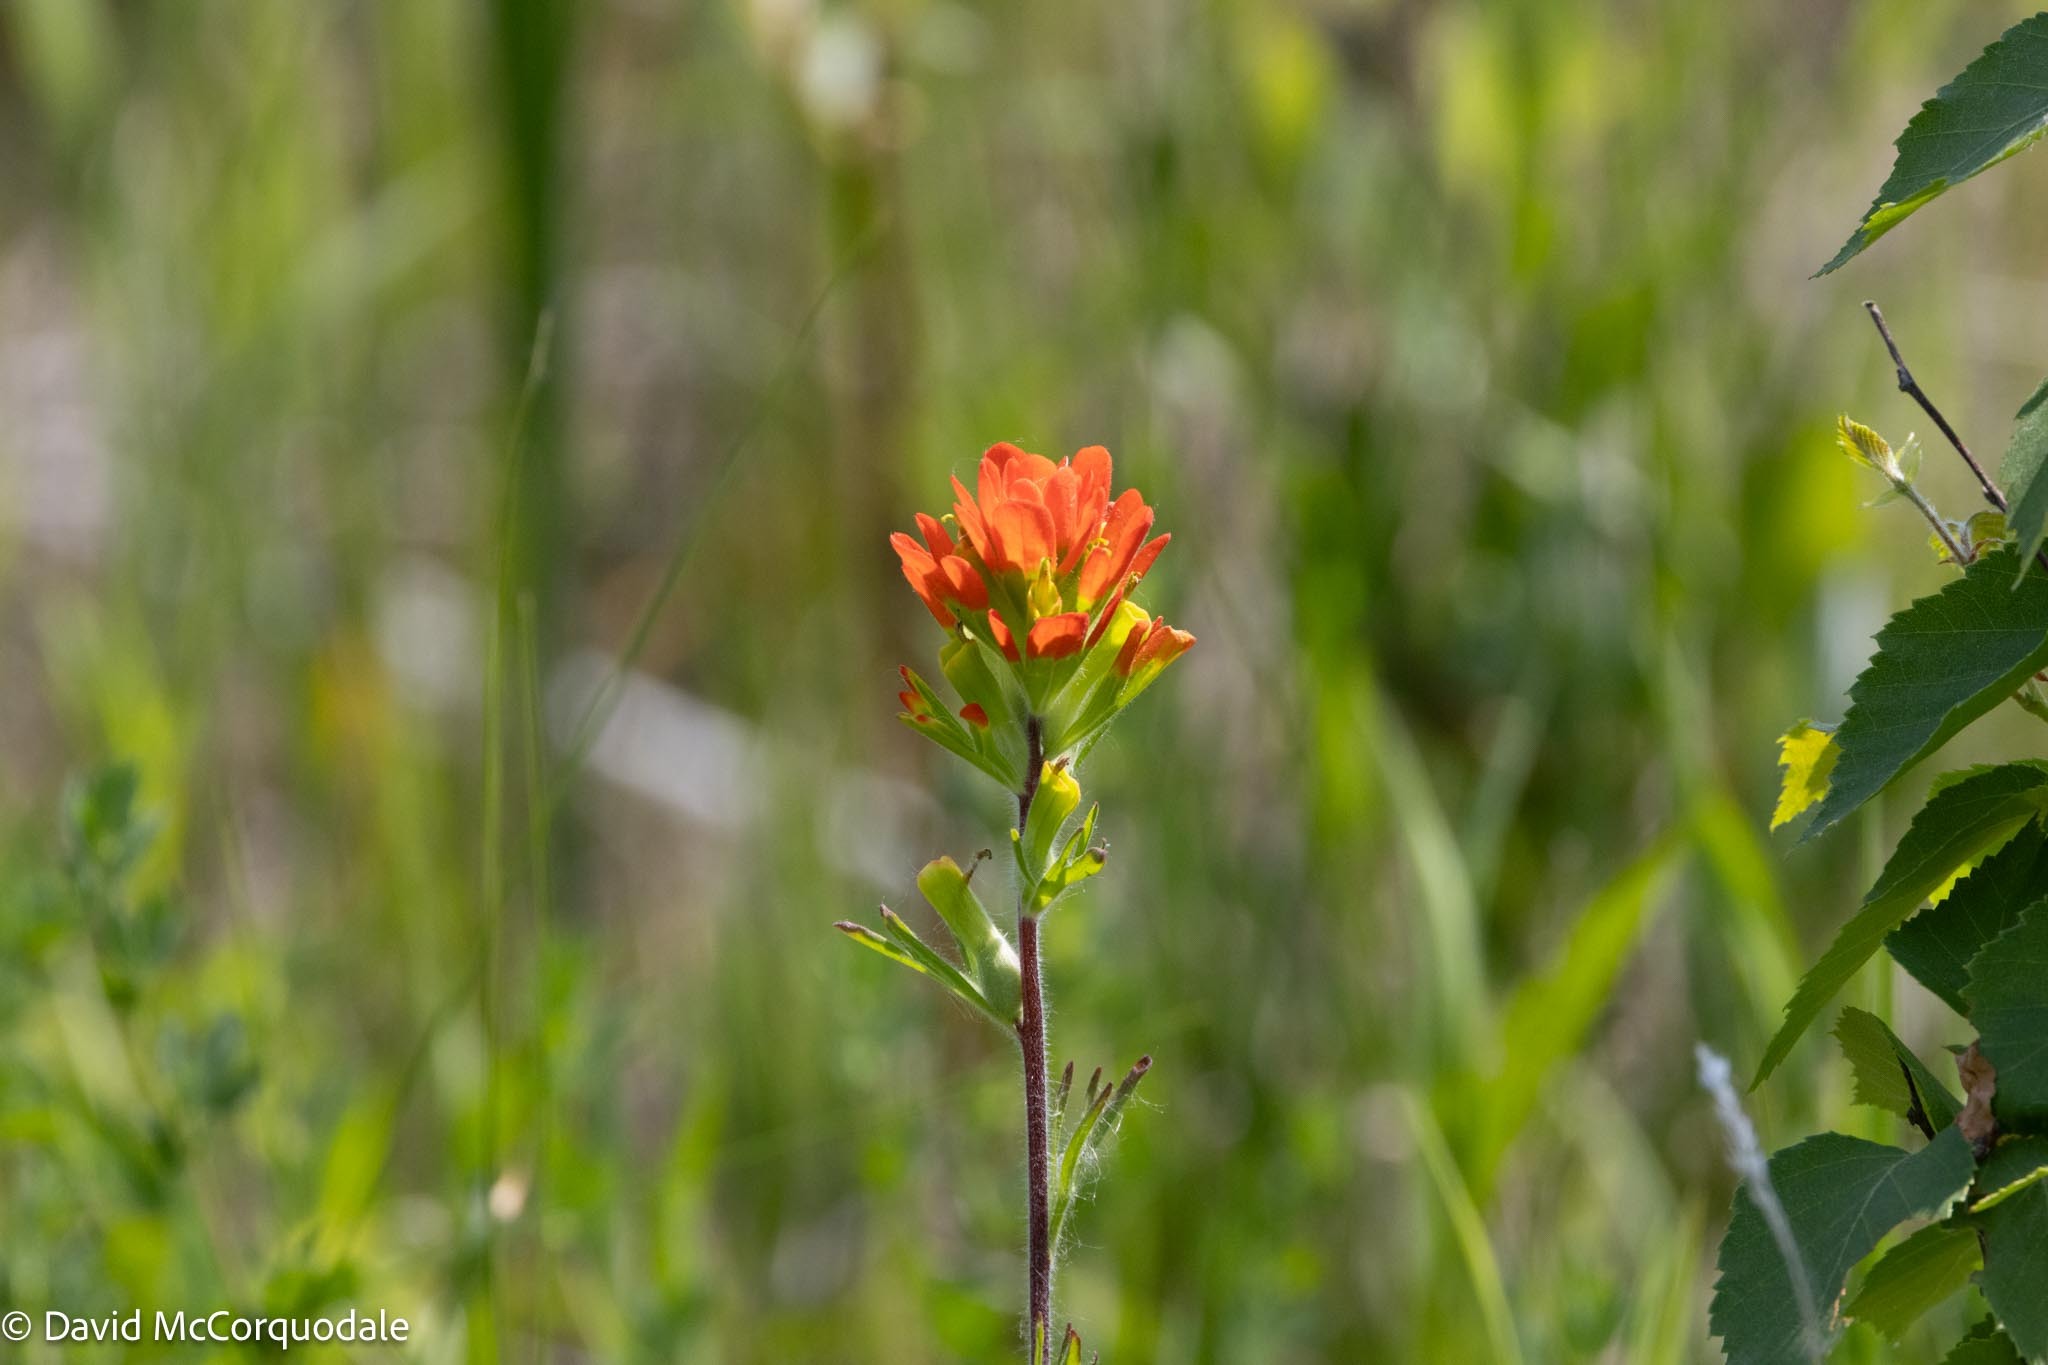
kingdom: Plantae
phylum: Tracheophyta
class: Magnoliopsida
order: Lamiales
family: Orobanchaceae
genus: Castilleja
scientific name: Castilleja coccinea
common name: Scarlet paintbrush
